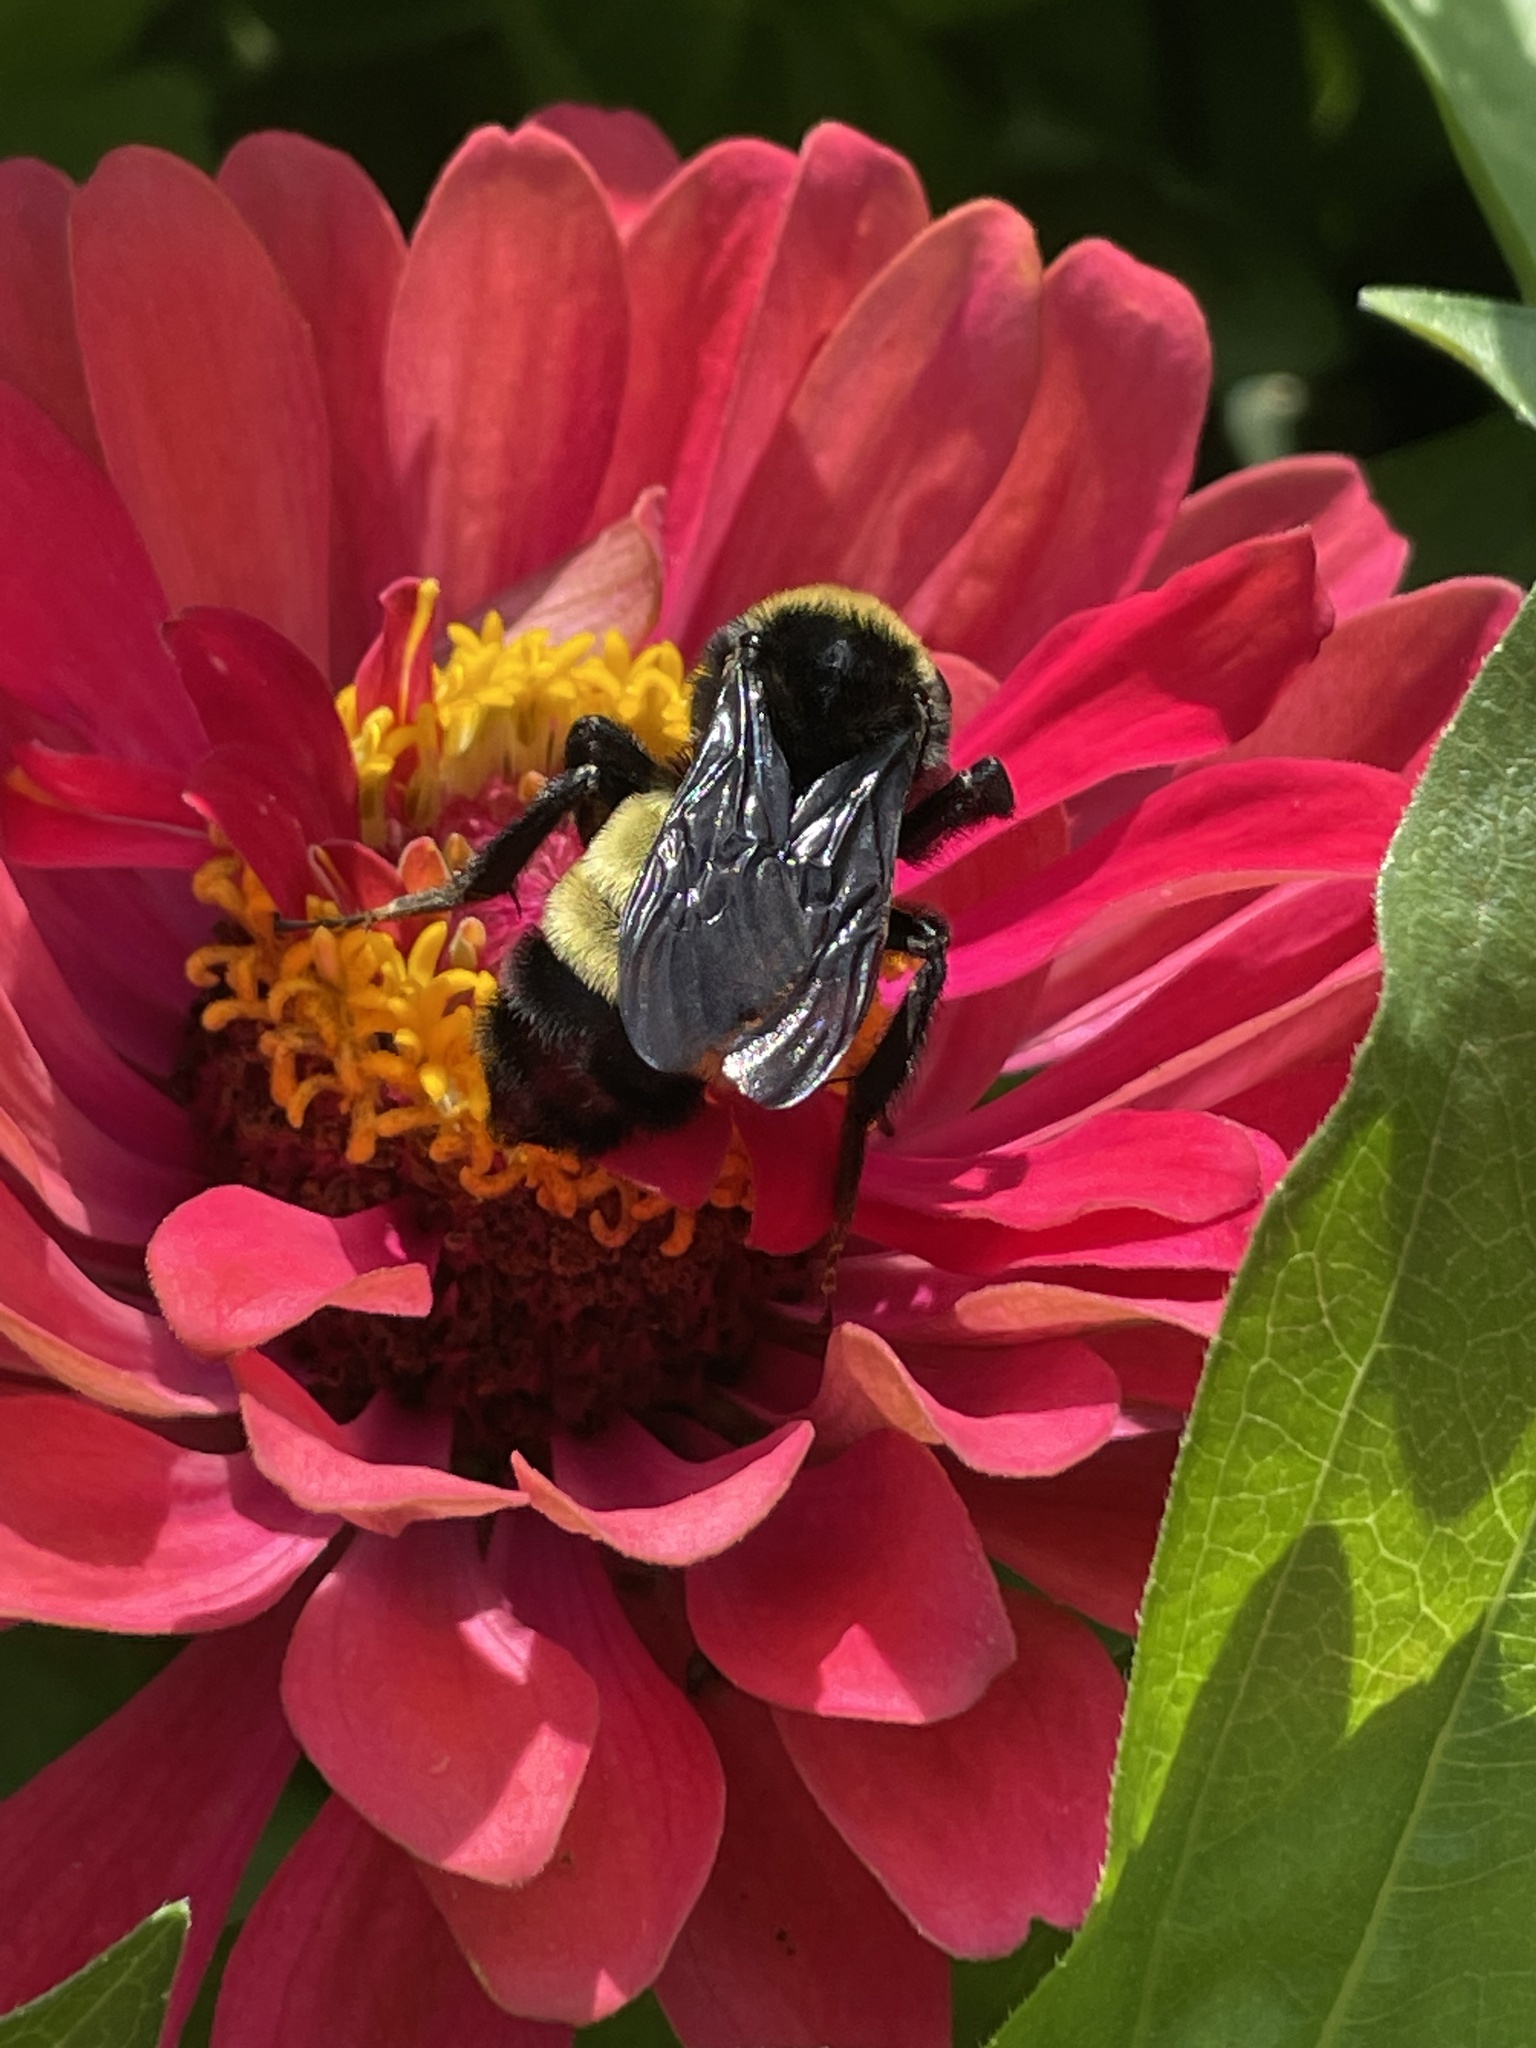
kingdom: Animalia
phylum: Arthropoda
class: Insecta
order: Hymenoptera
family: Apidae
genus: Bombus
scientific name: Bombus pensylvanicus
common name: Bumble bee
